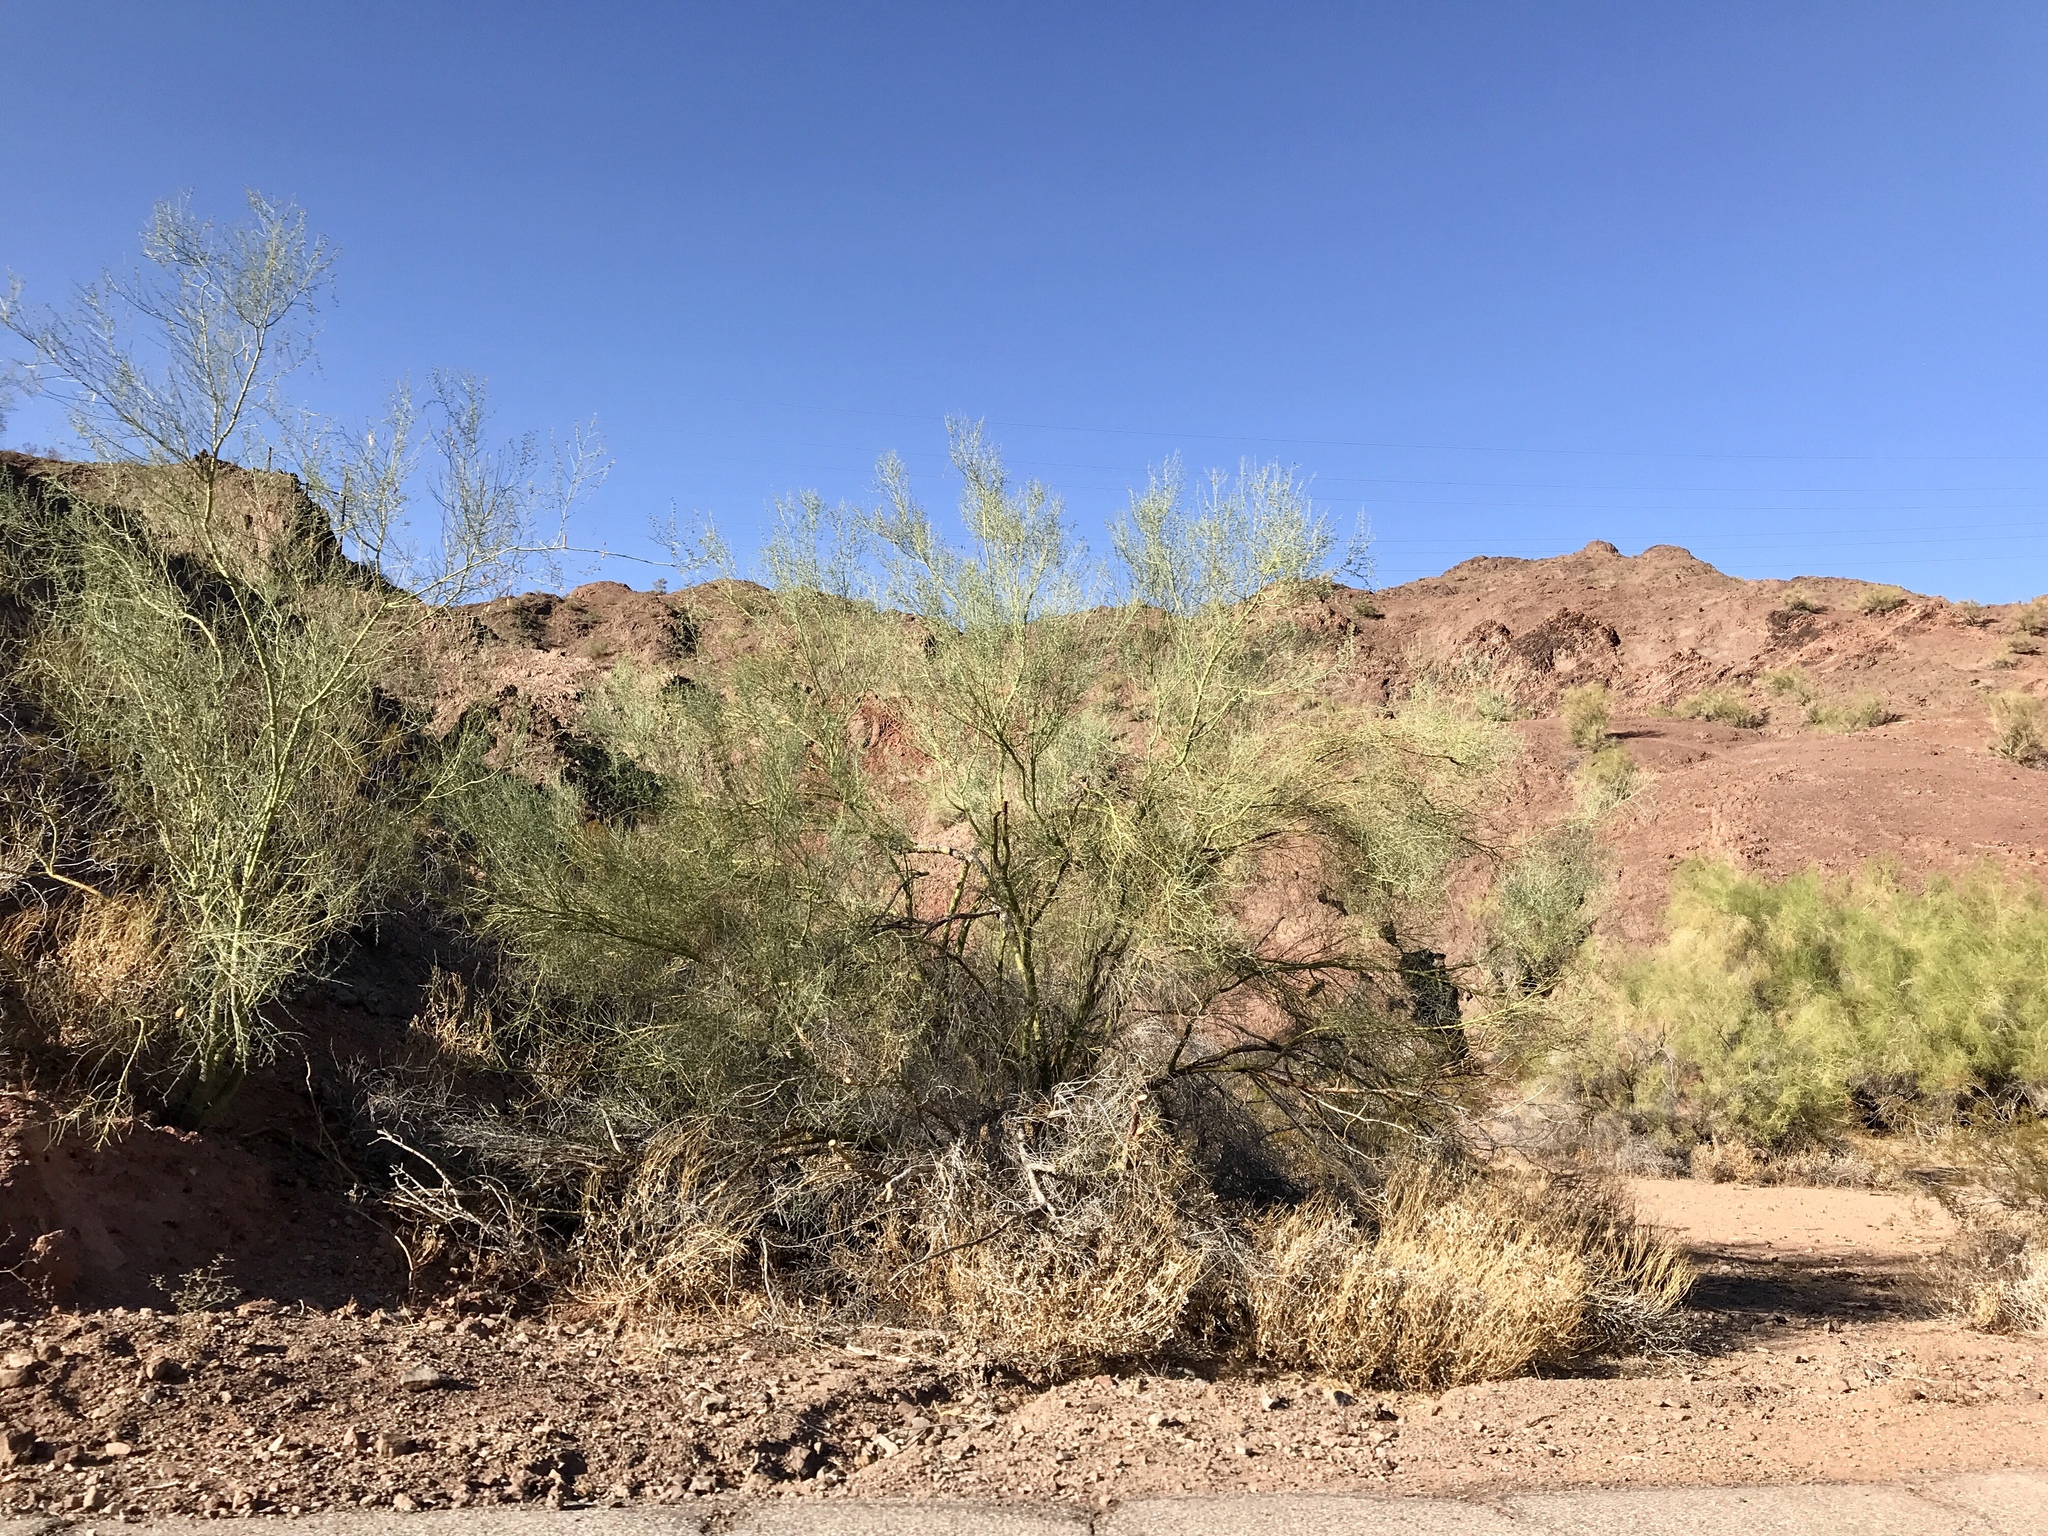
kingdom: Plantae
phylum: Tracheophyta
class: Magnoliopsida
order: Fabales
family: Fabaceae
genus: Parkinsonia
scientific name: Parkinsonia florida
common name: Blue paloverde
